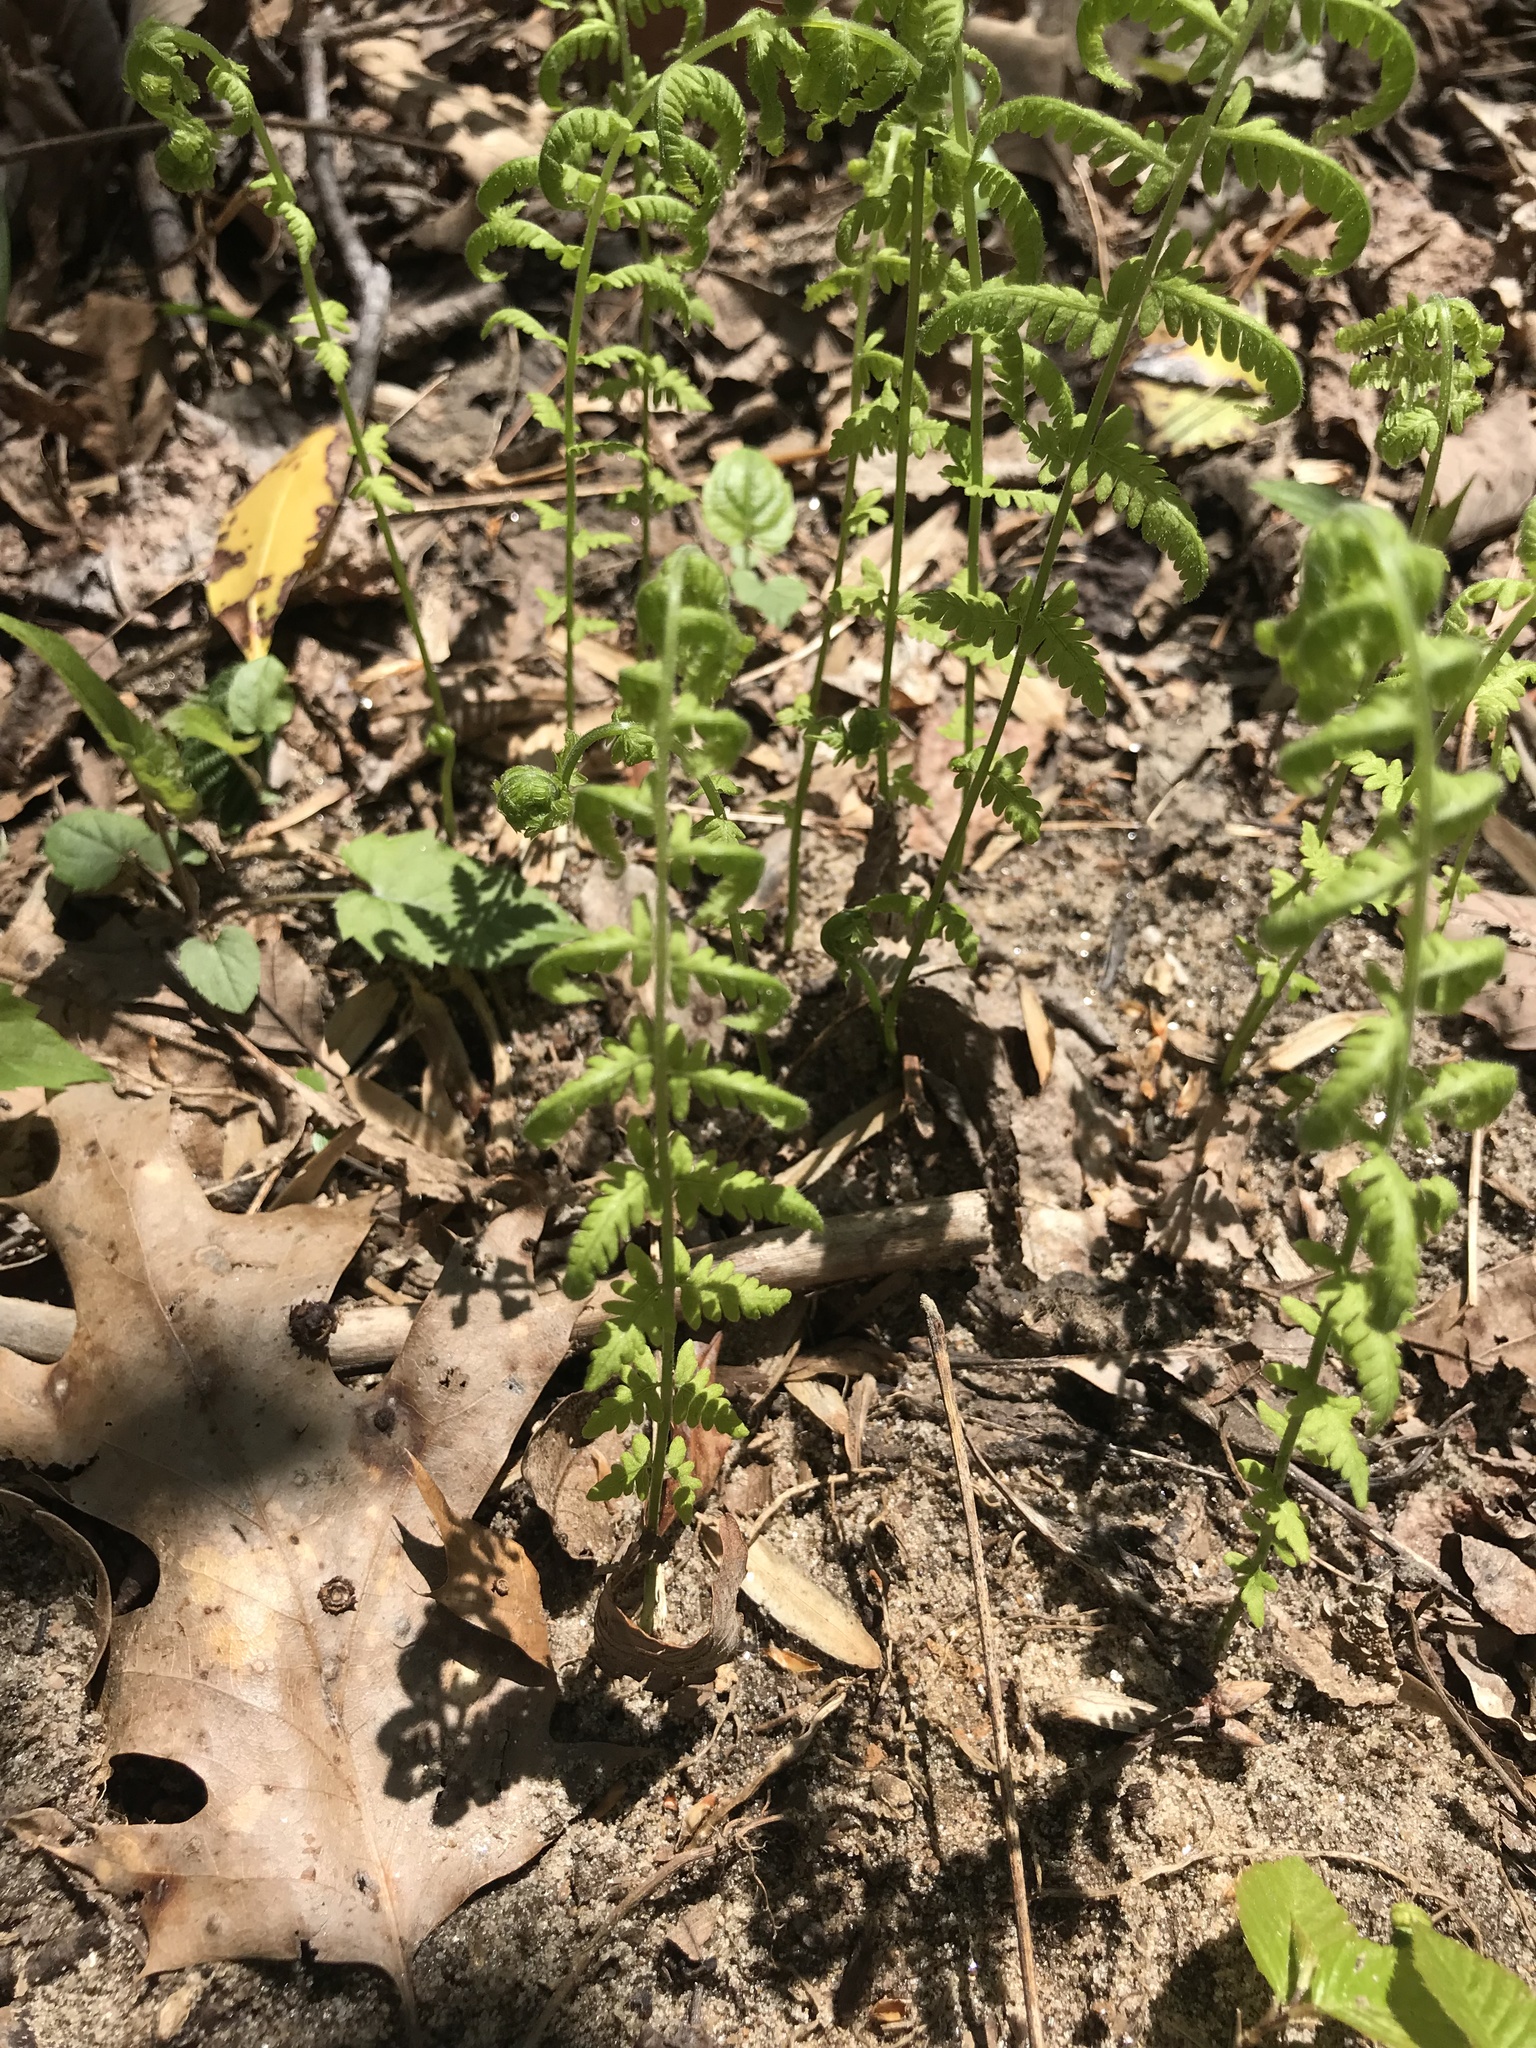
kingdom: Plantae
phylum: Tracheophyta
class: Polypodiopsida
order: Polypodiales
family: Thelypteridaceae
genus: Amauropelta
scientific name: Amauropelta noveboracensis
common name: New york fern
